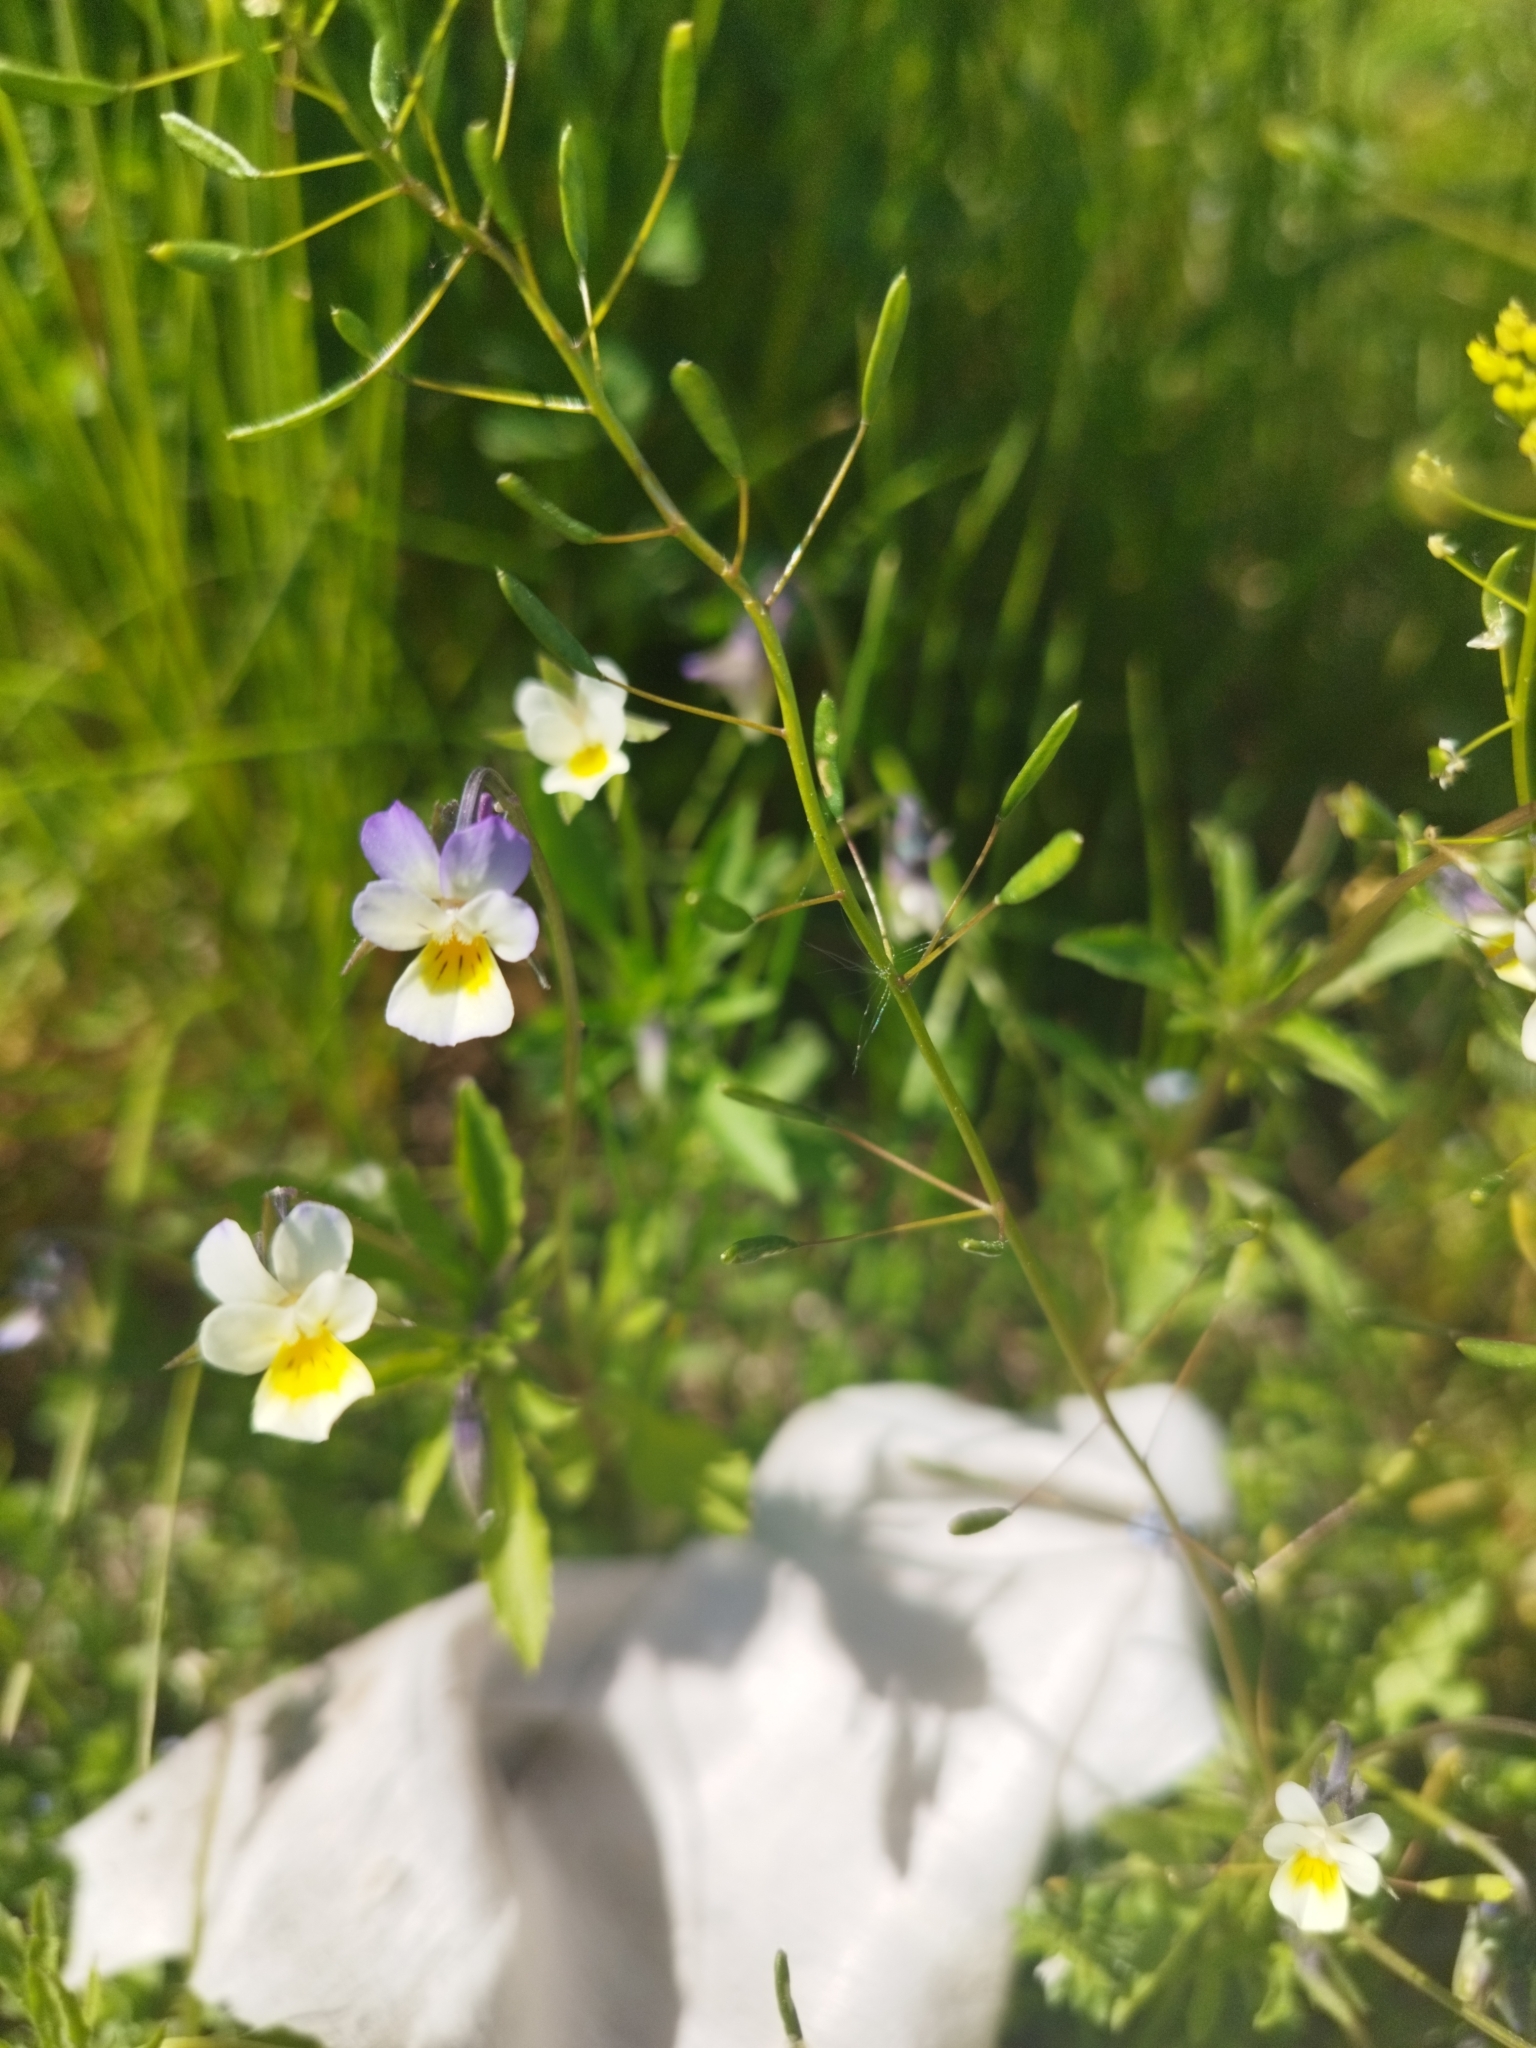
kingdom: Plantae
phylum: Tracheophyta
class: Magnoliopsida
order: Malpighiales
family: Violaceae
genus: Viola
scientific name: Viola contempta
